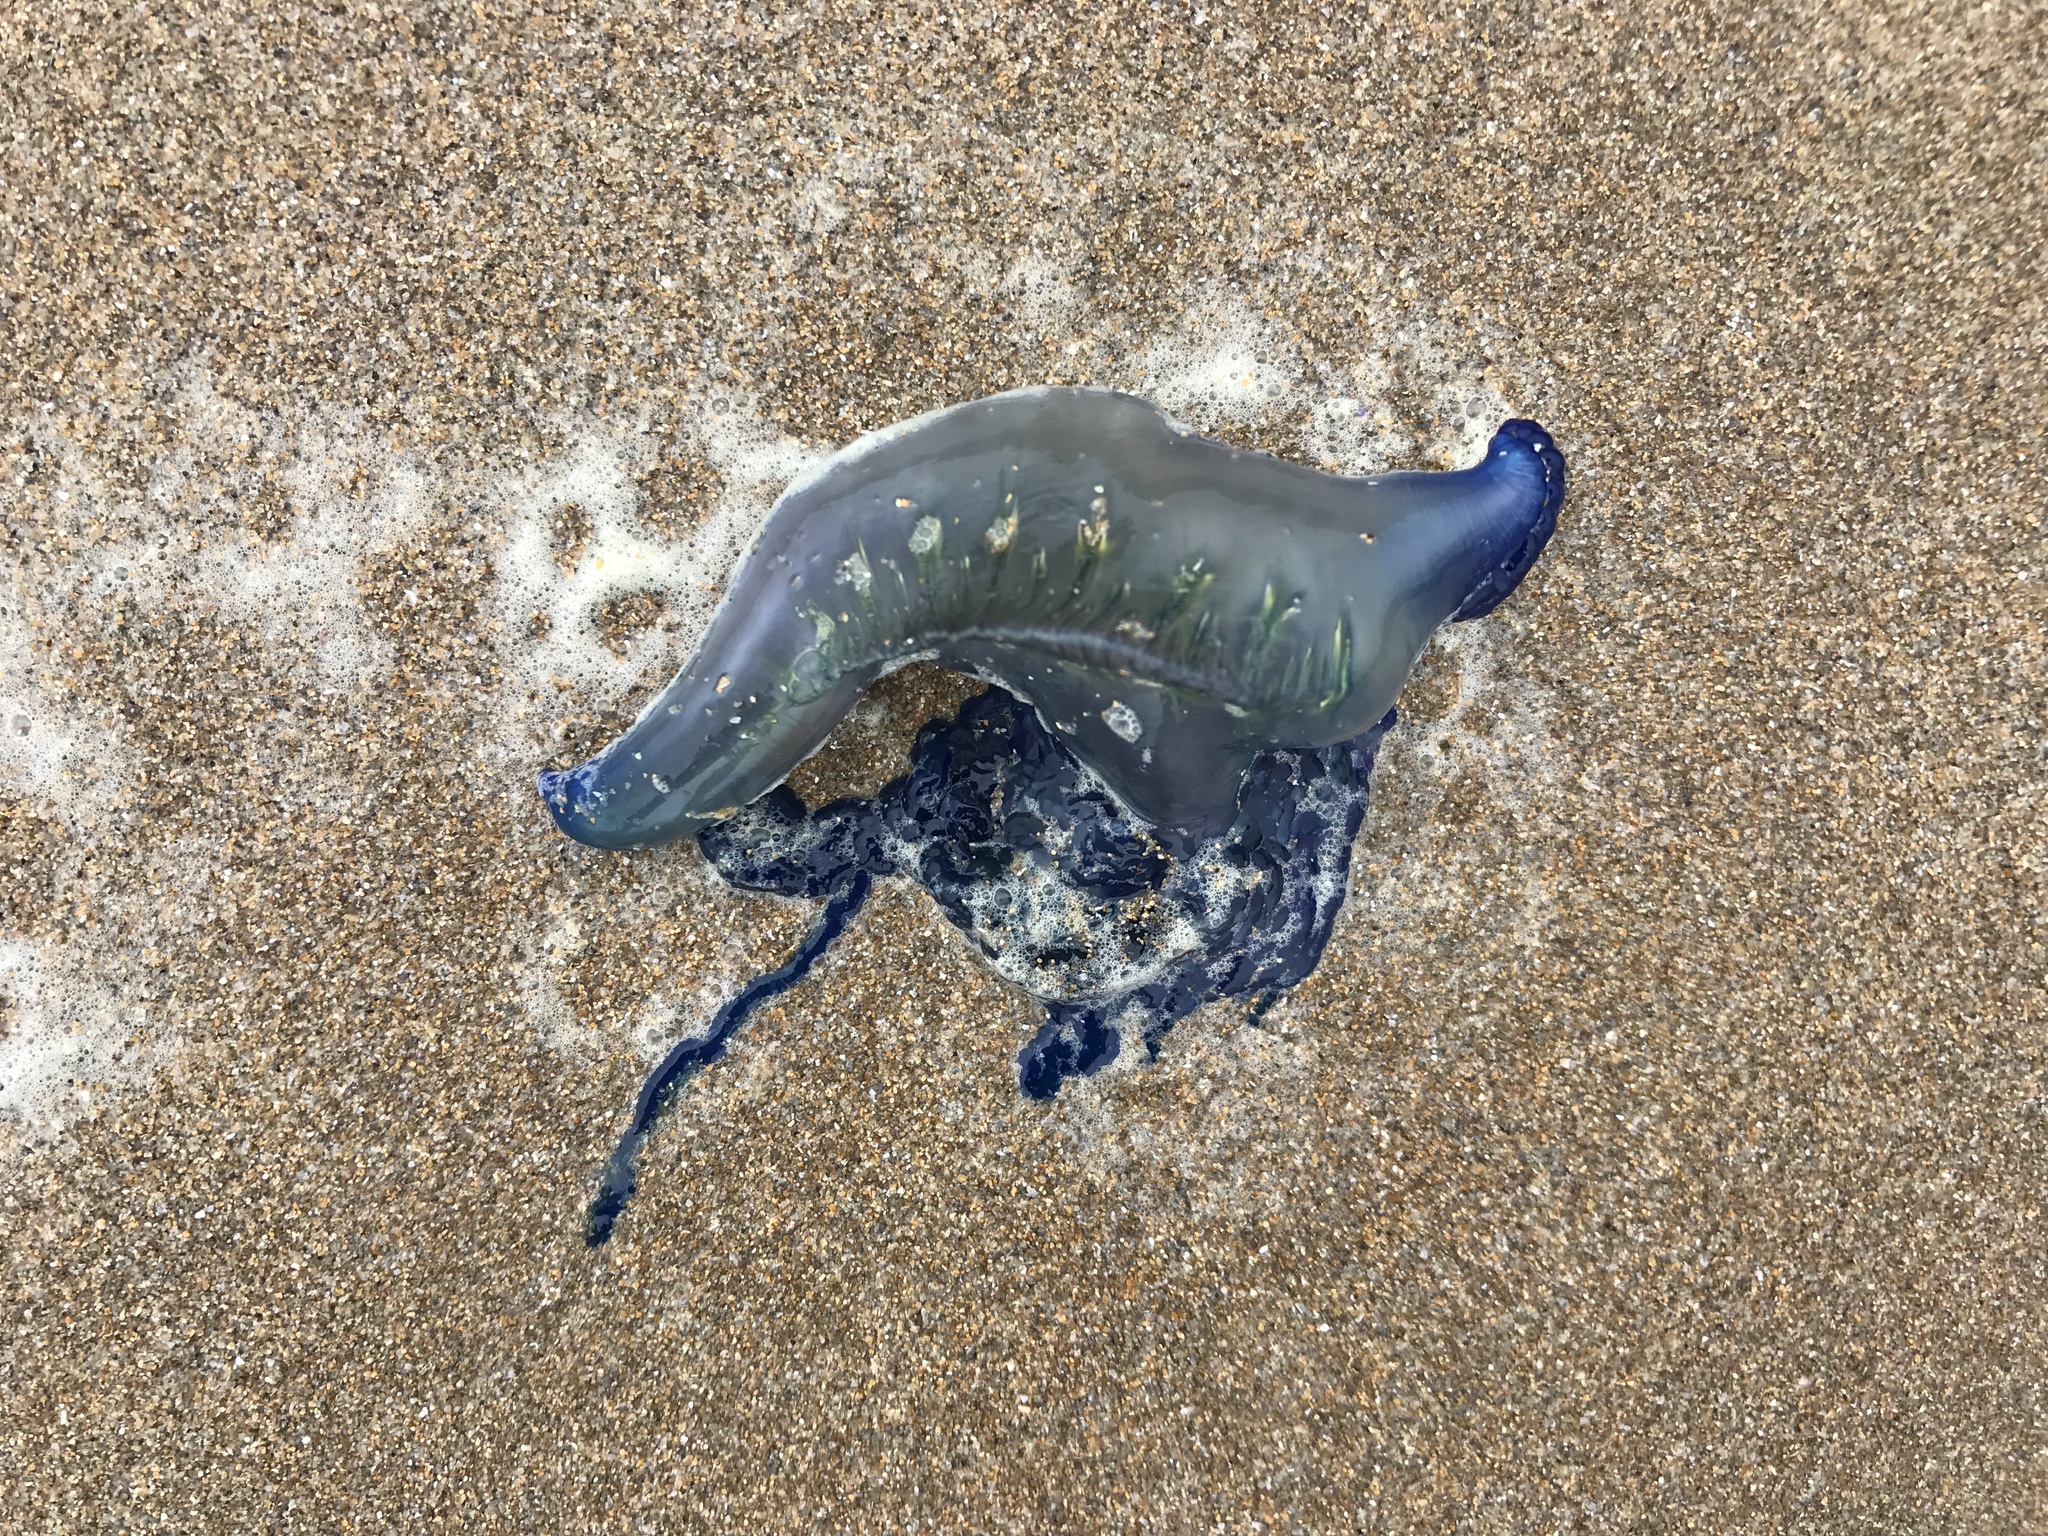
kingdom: Animalia
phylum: Cnidaria
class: Hydrozoa
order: Siphonophorae
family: Physaliidae
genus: Physalia
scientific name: Physalia physalis
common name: Portuguese man-of-war
